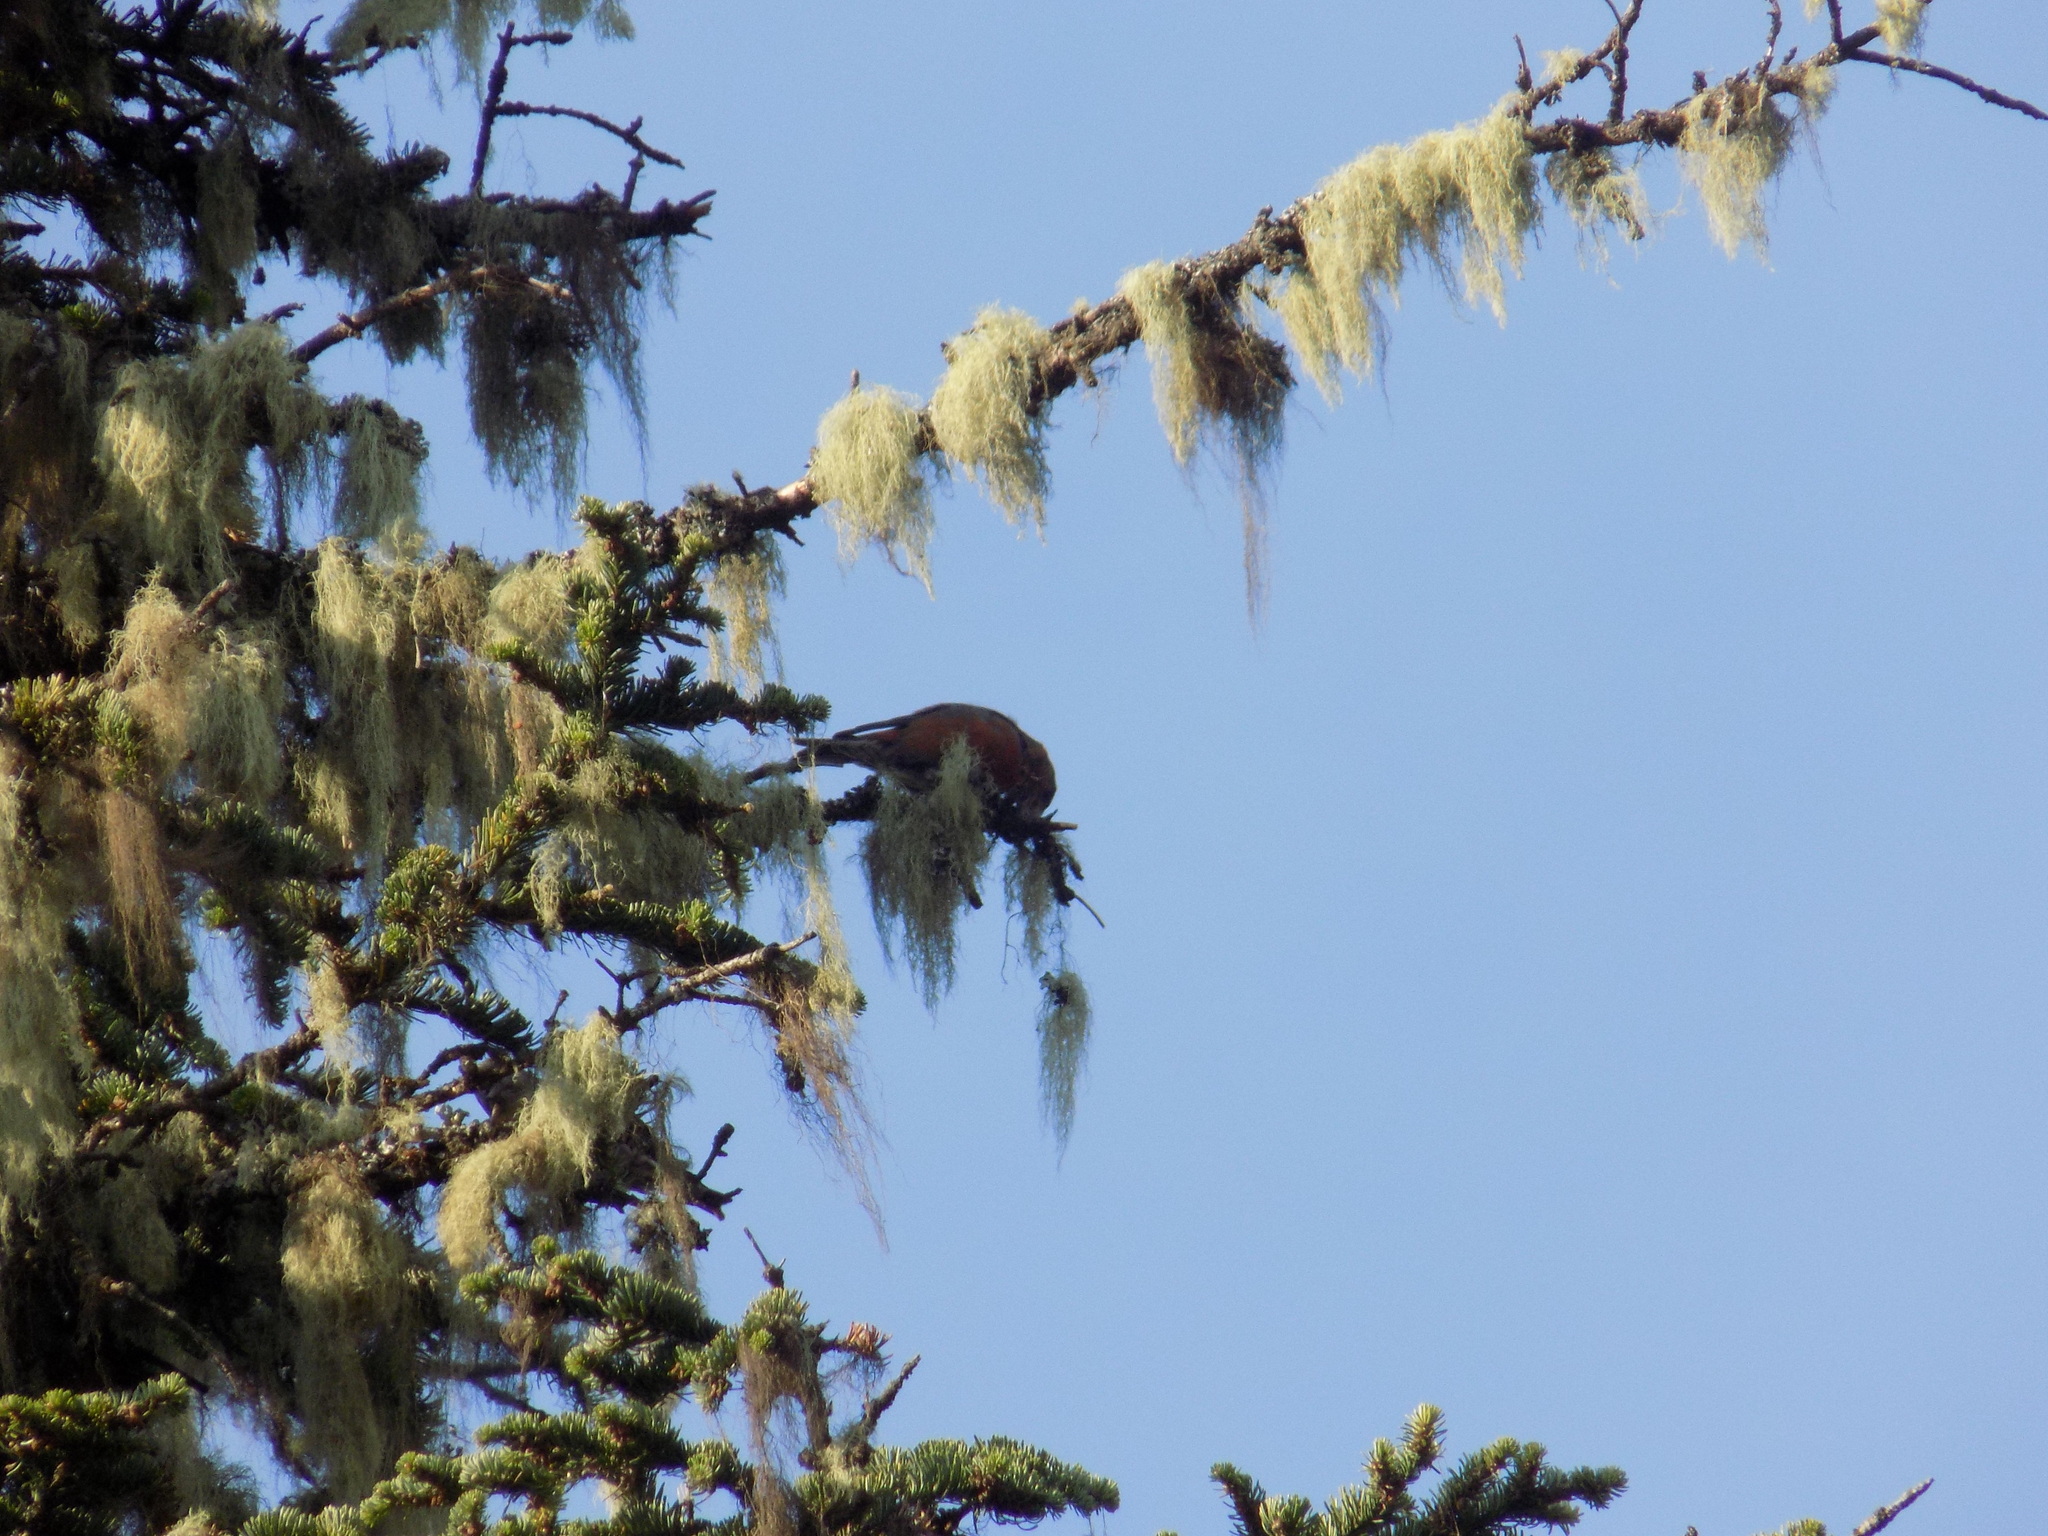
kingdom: Animalia
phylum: Chordata
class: Aves
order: Passeriformes
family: Fringillidae
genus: Loxia
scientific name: Loxia curvirostra
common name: Red crossbill
